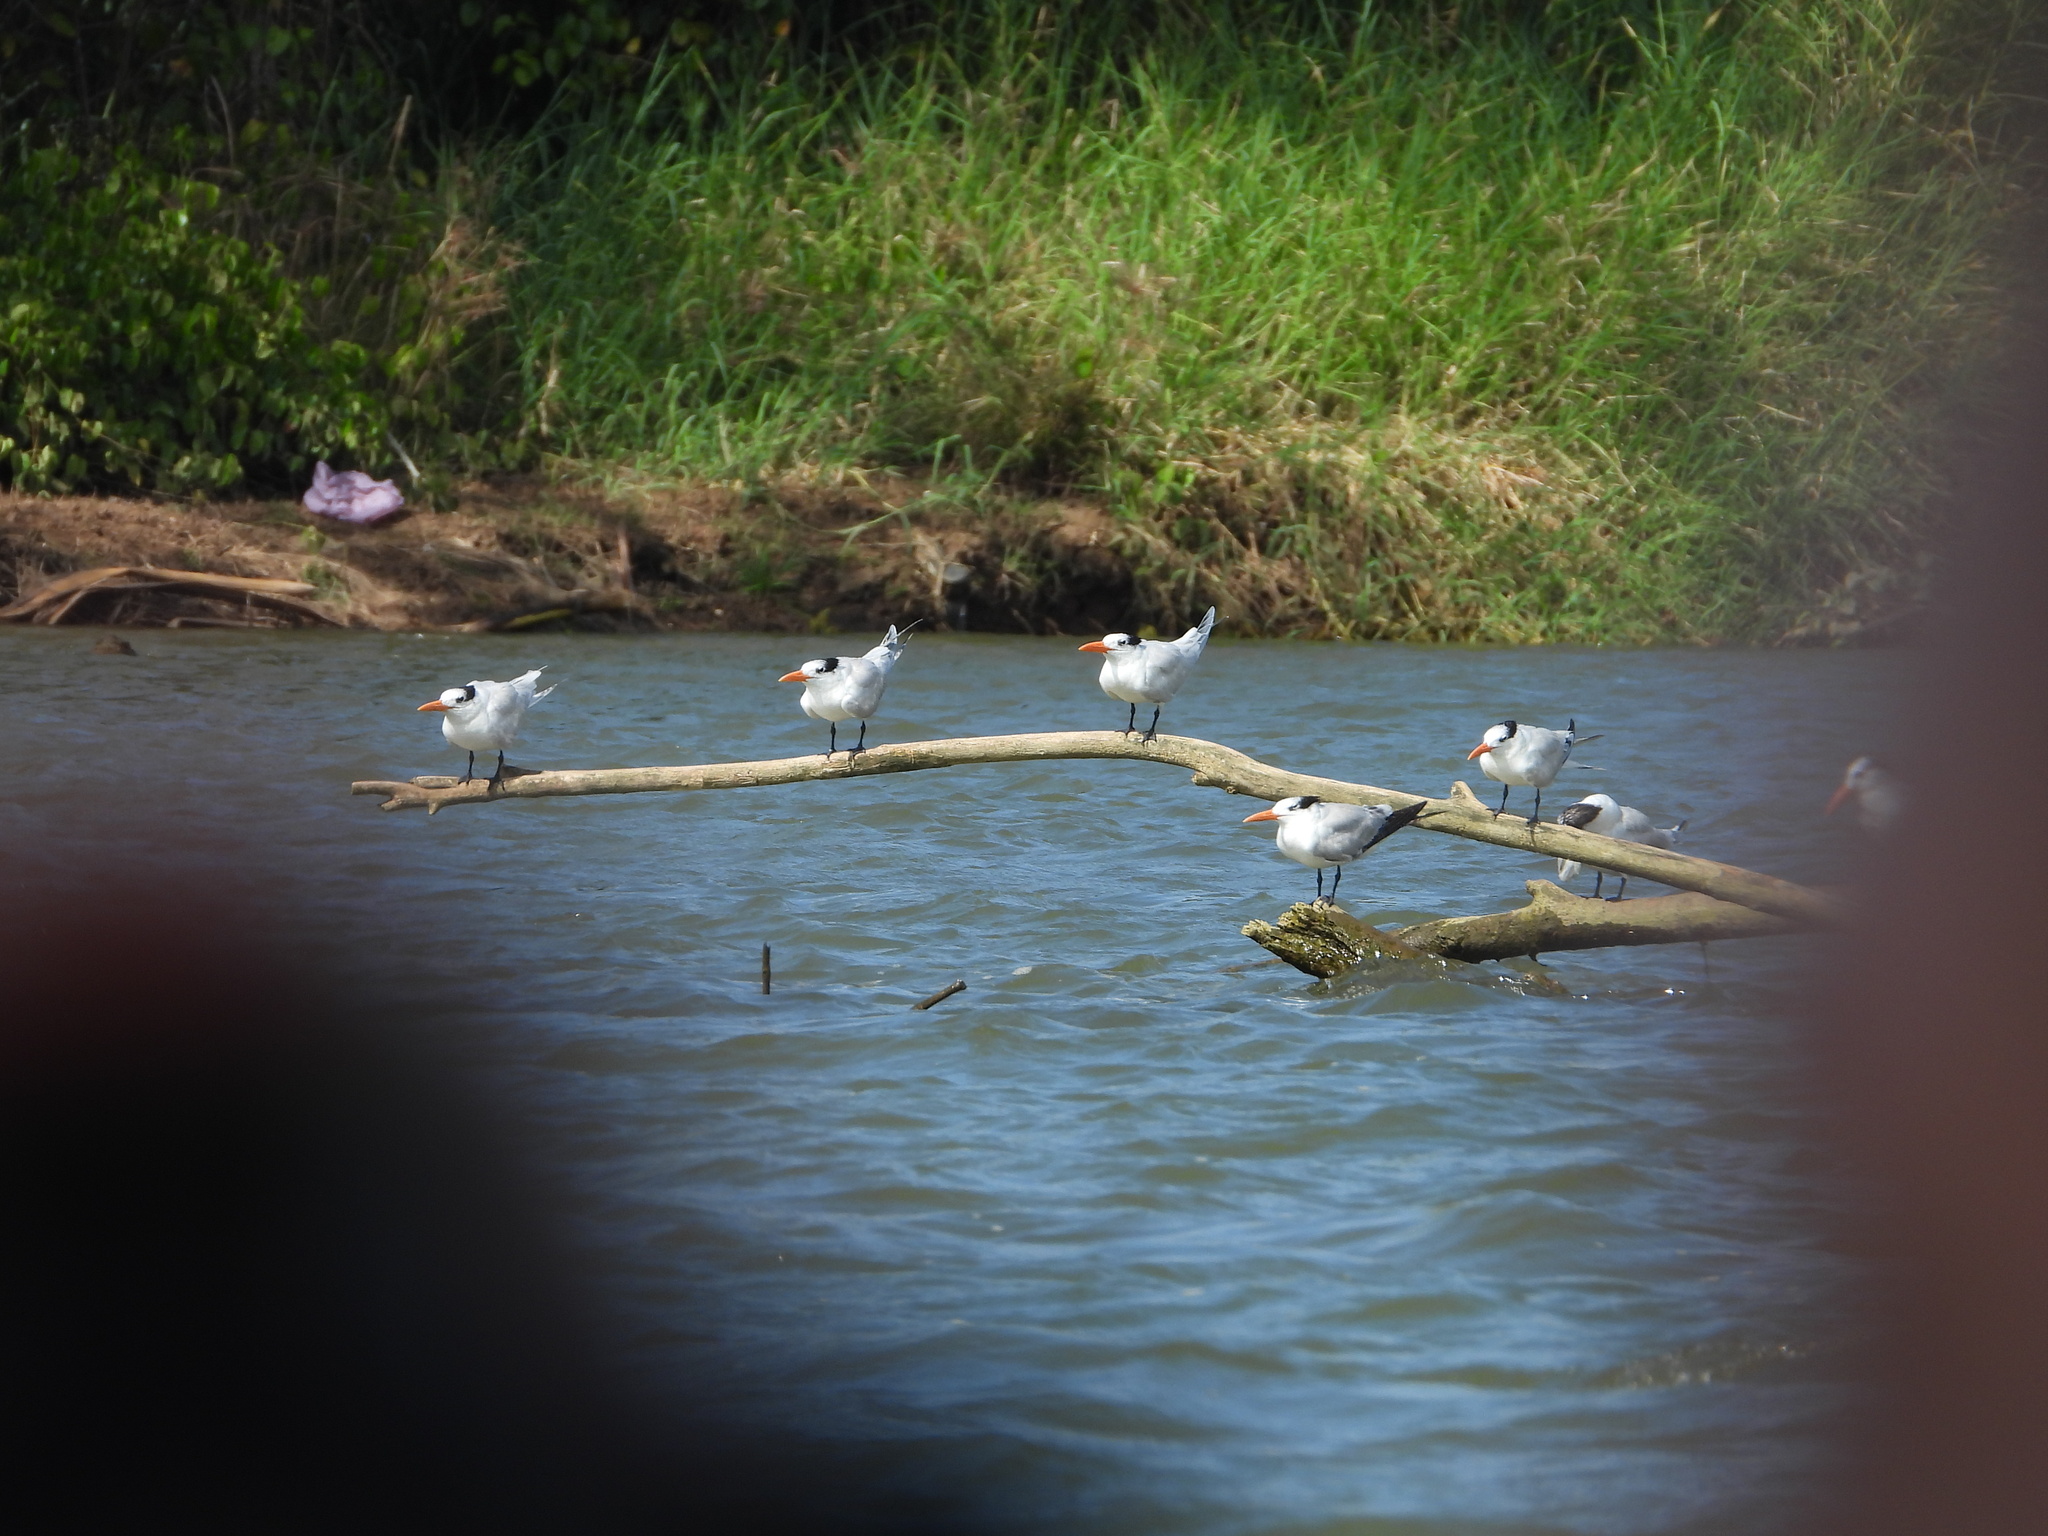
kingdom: Animalia
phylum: Chordata
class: Aves
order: Charadriiformes
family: Laridae
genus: Thalasseus
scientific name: Thalasseus maximus
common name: Royal tern
